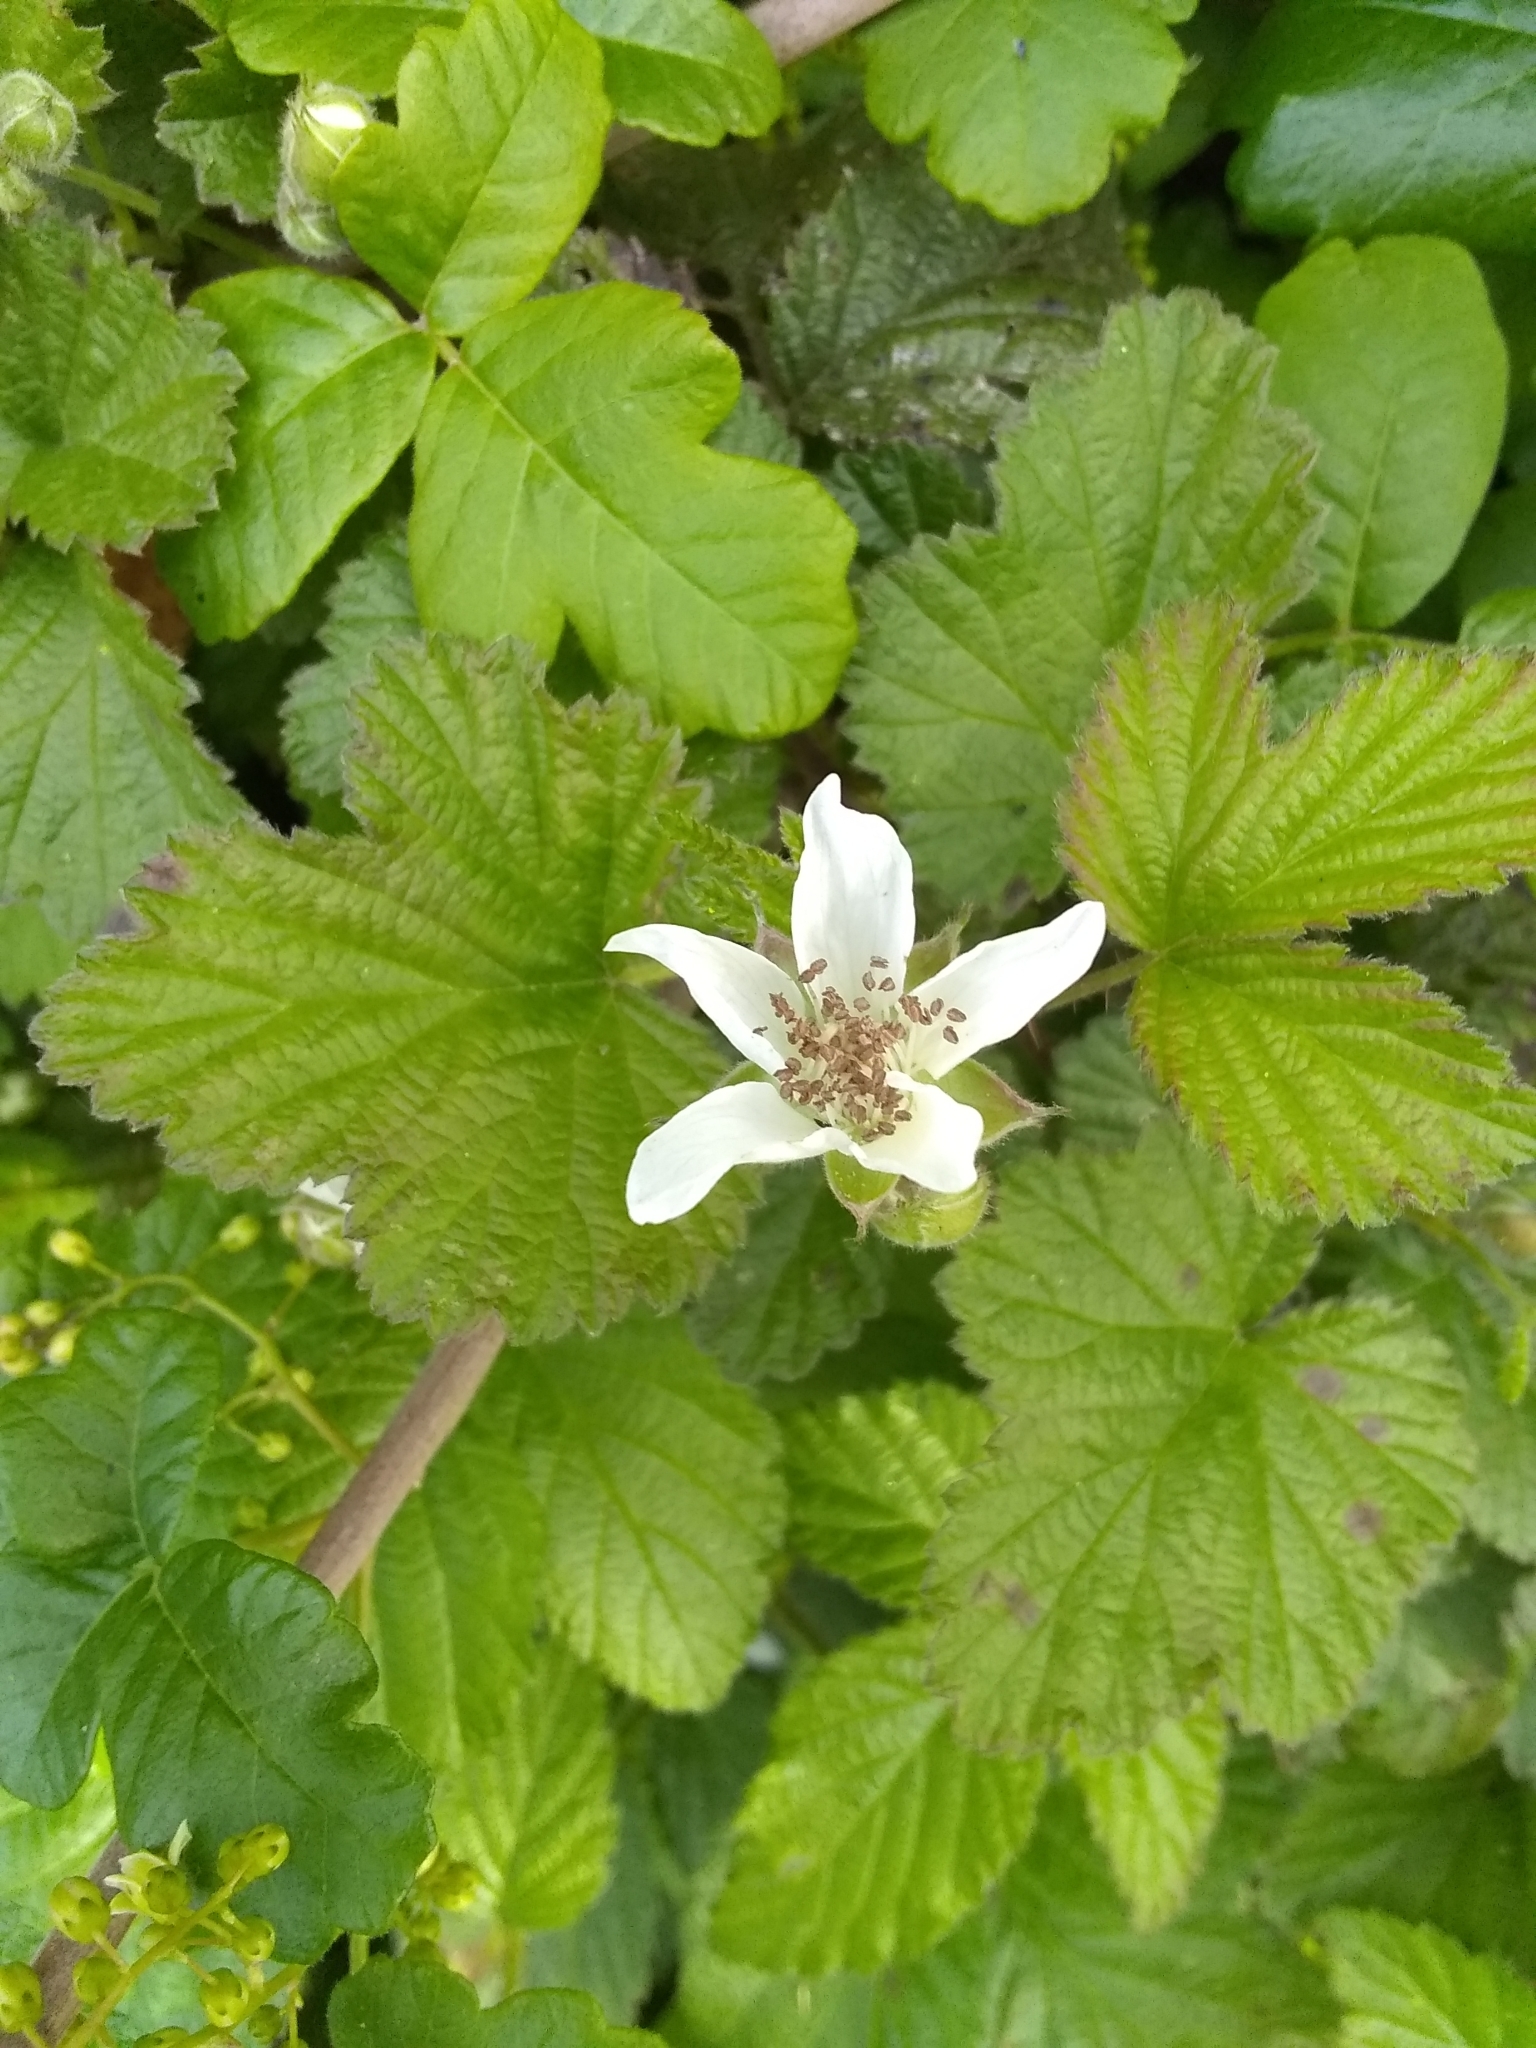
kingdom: Plantae
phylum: Tracheophyta
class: Magnoliopsida
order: Rosales
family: Rosaceae
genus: Rubus
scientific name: Rubus ursinus
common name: Pacific blackberry
